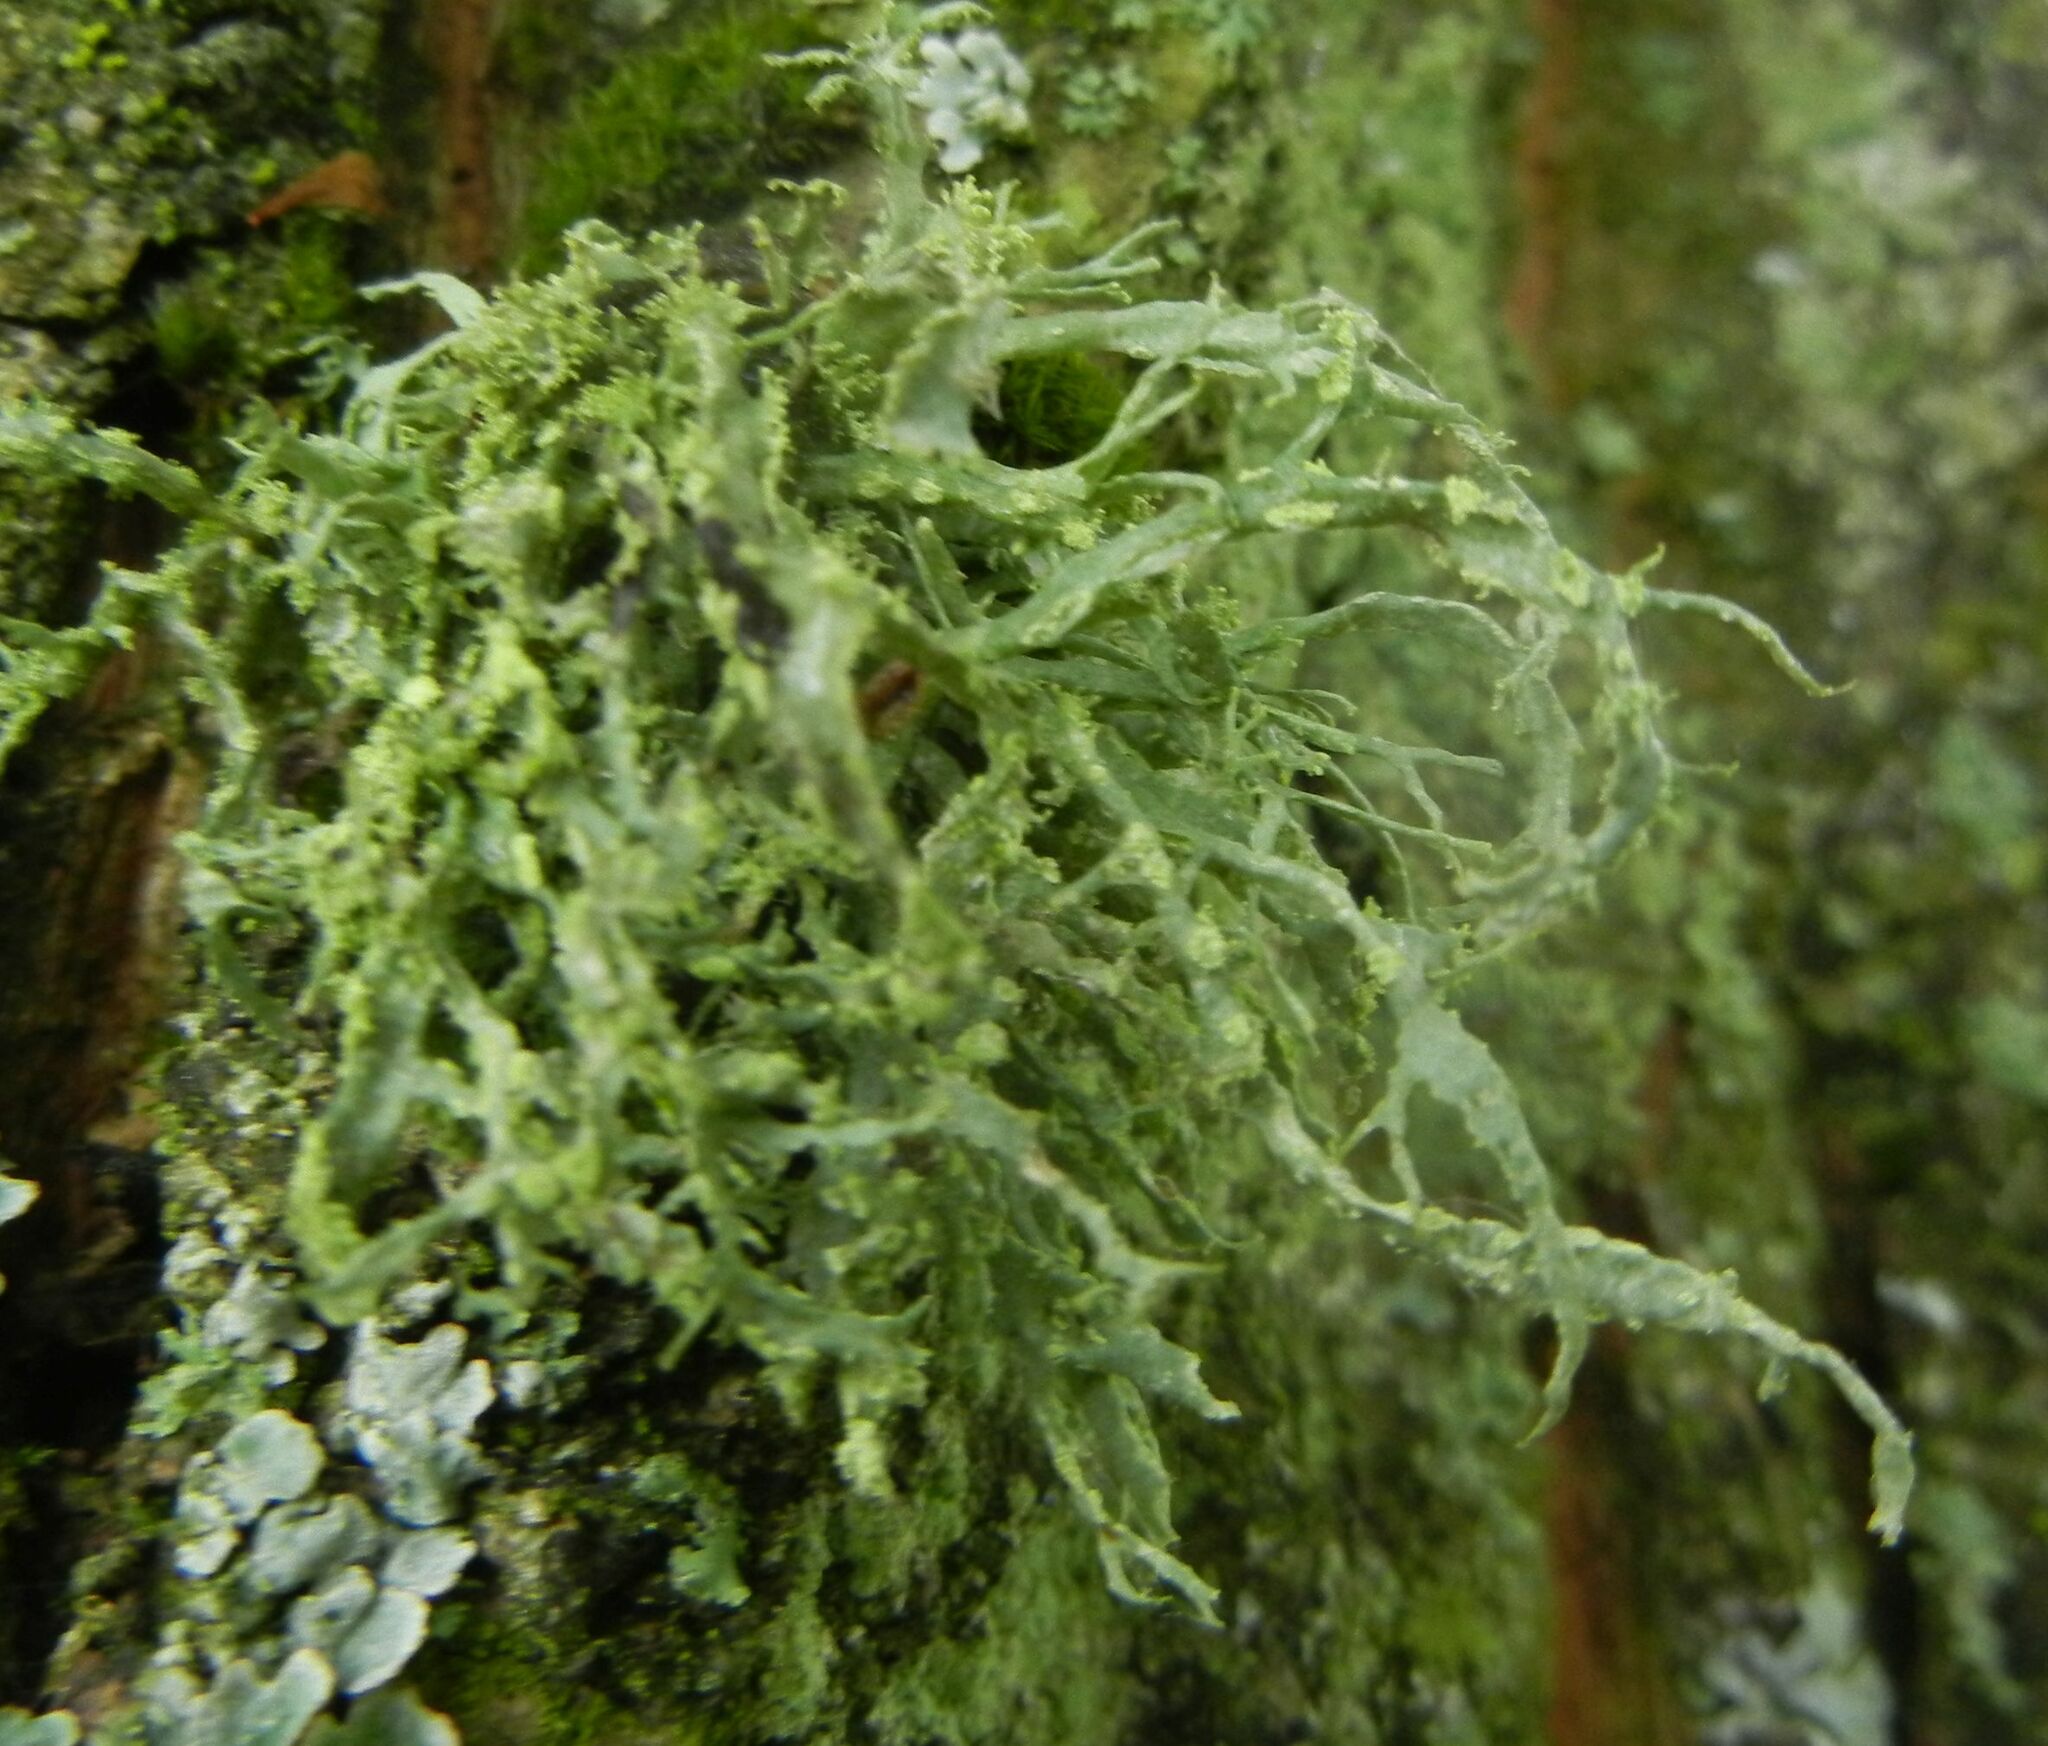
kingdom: Fungi
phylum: Ascomycota
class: Lecanoromycetes
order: Lecanorales
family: Ramalinaceae
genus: Ramalina
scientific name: Ramalina farinacea
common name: Farinose cartilage lichen
